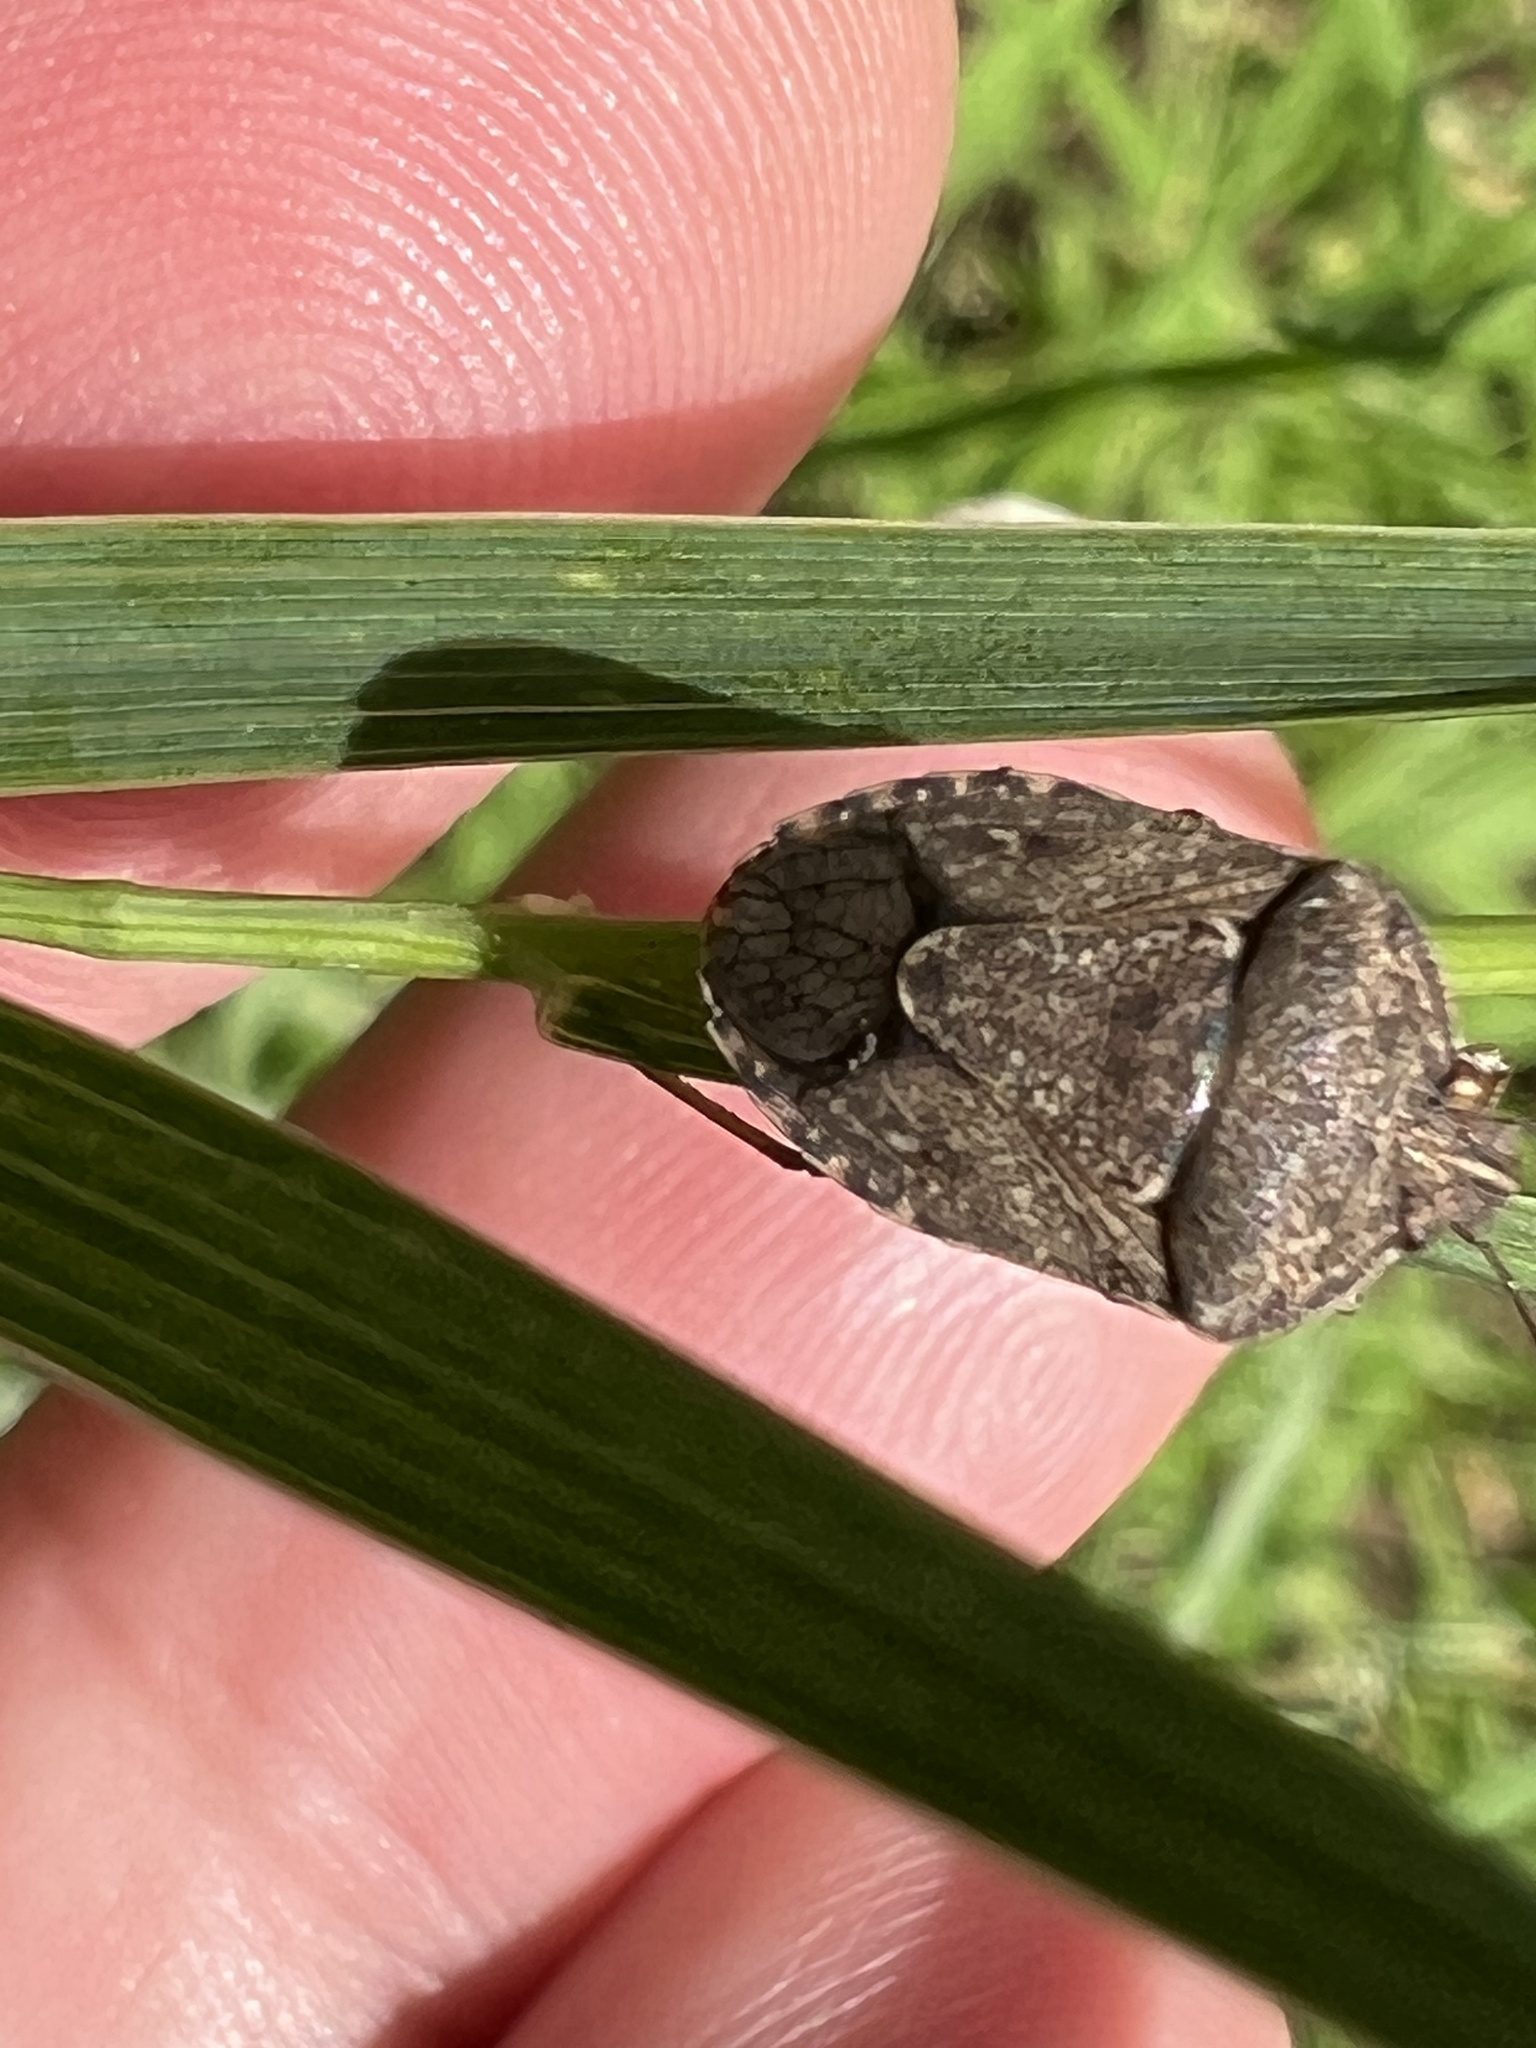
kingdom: Animalia
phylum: Arthropoda
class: Insecta
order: Hemiptera
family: Pentatomidae
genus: Hymenarcys
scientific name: Hymenarcys nervosa
